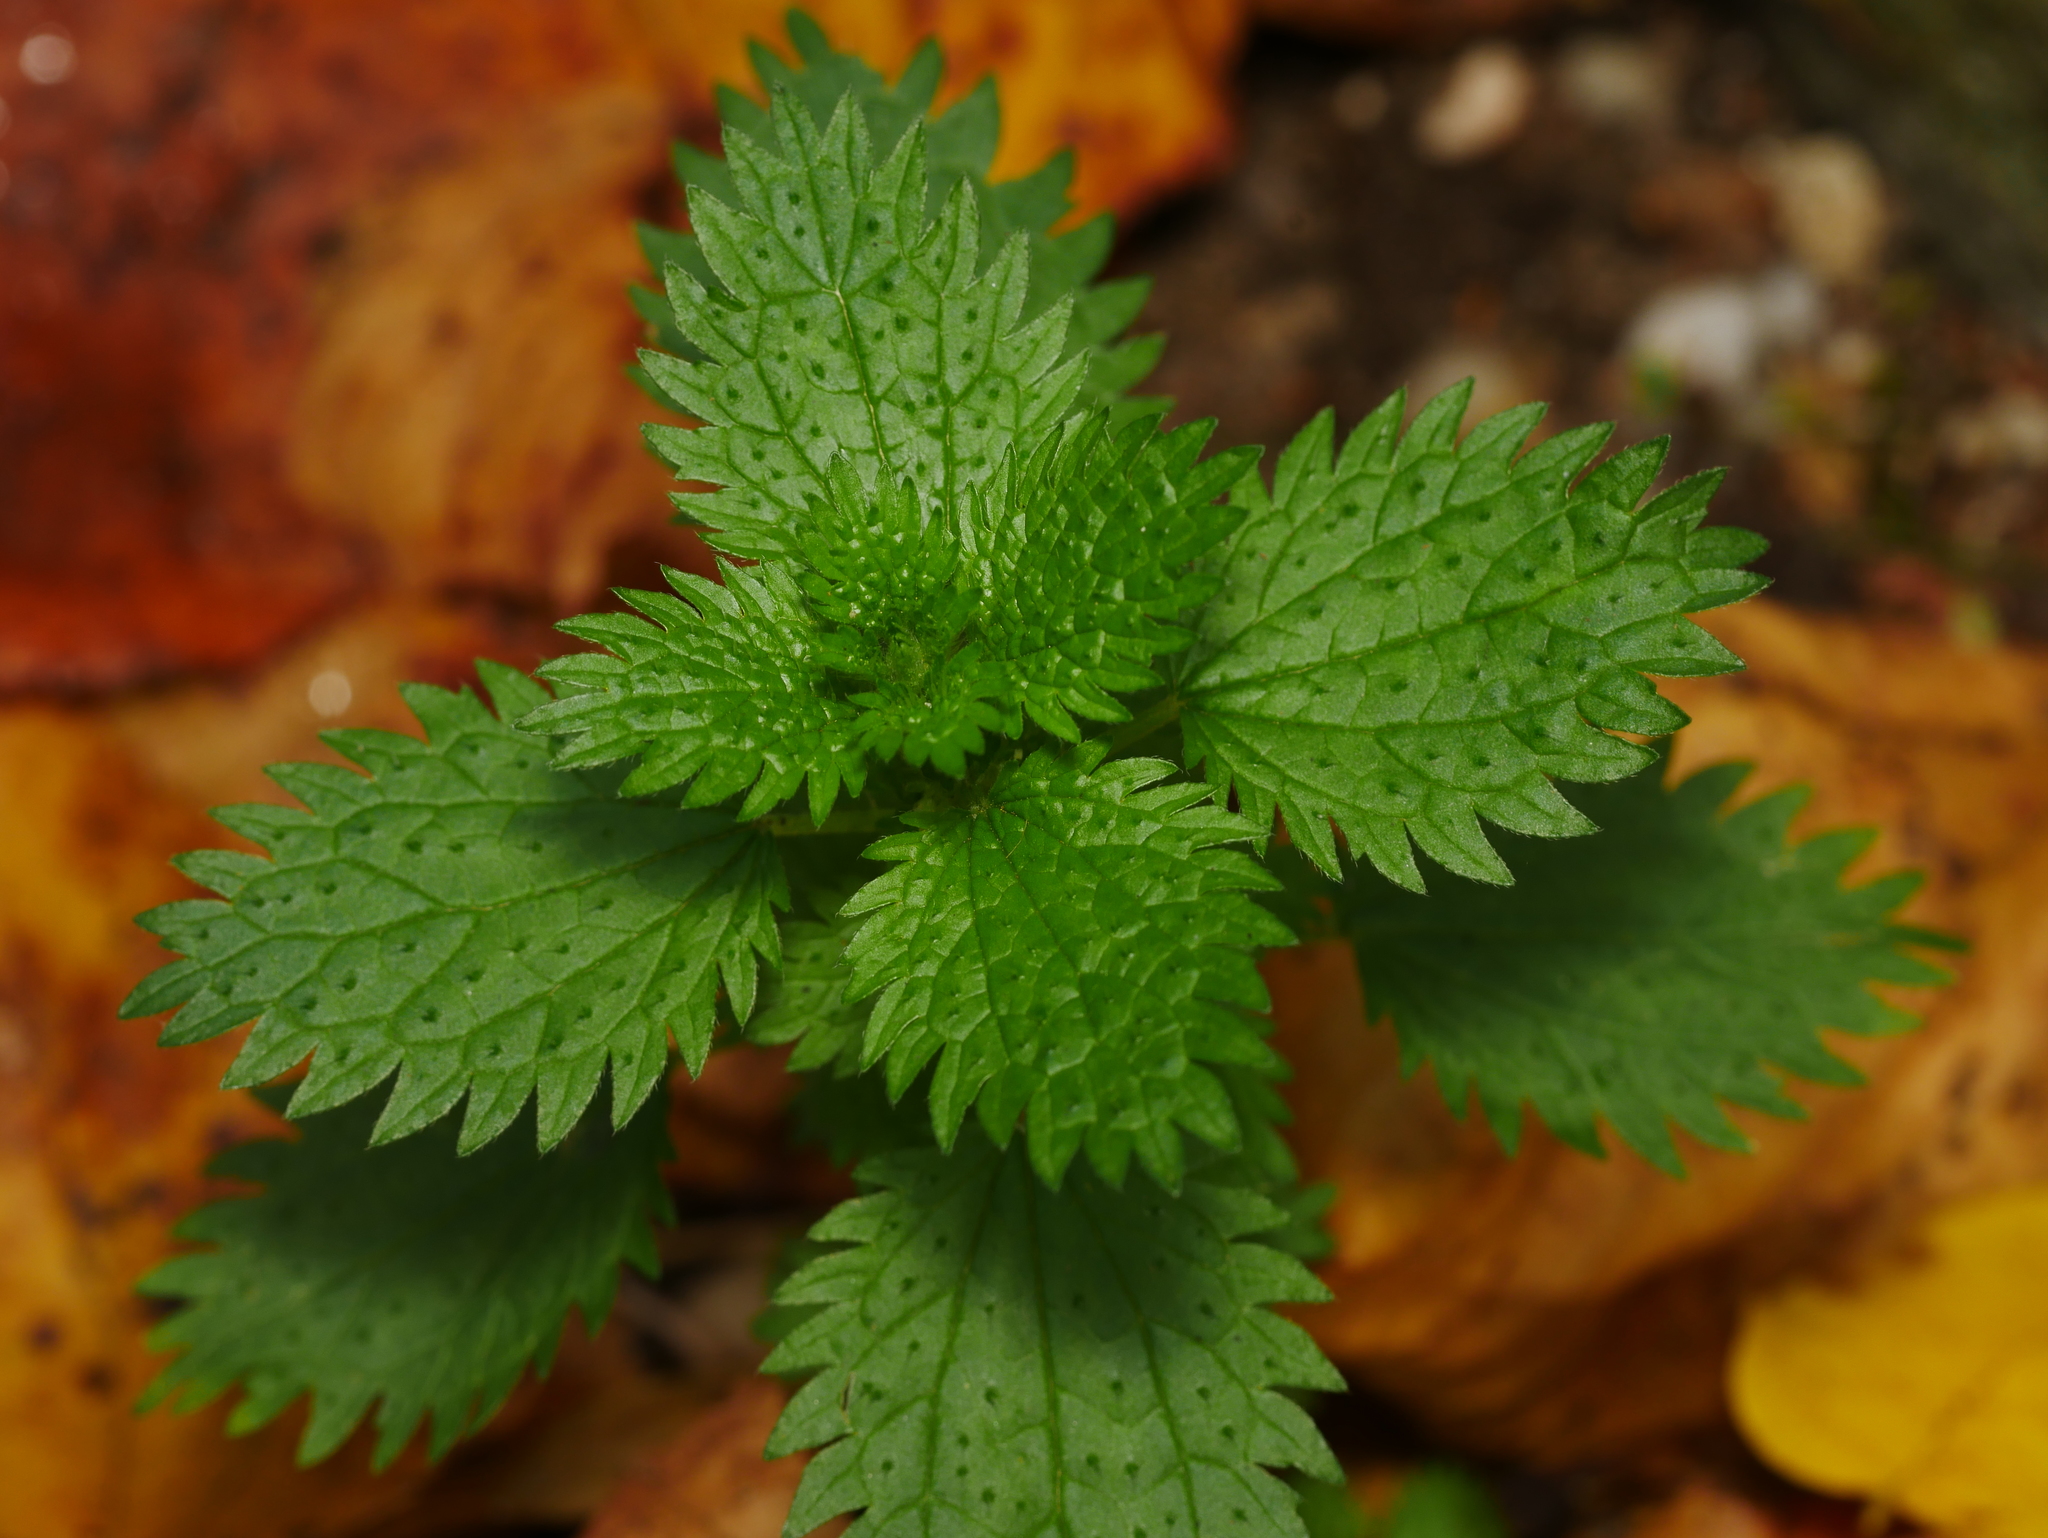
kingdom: Plantae
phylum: Tracheophyta
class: Magnoliopsida
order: Rosales
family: Urticaceae
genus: Urtica
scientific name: Urtica urens
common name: Dwarf nettle
